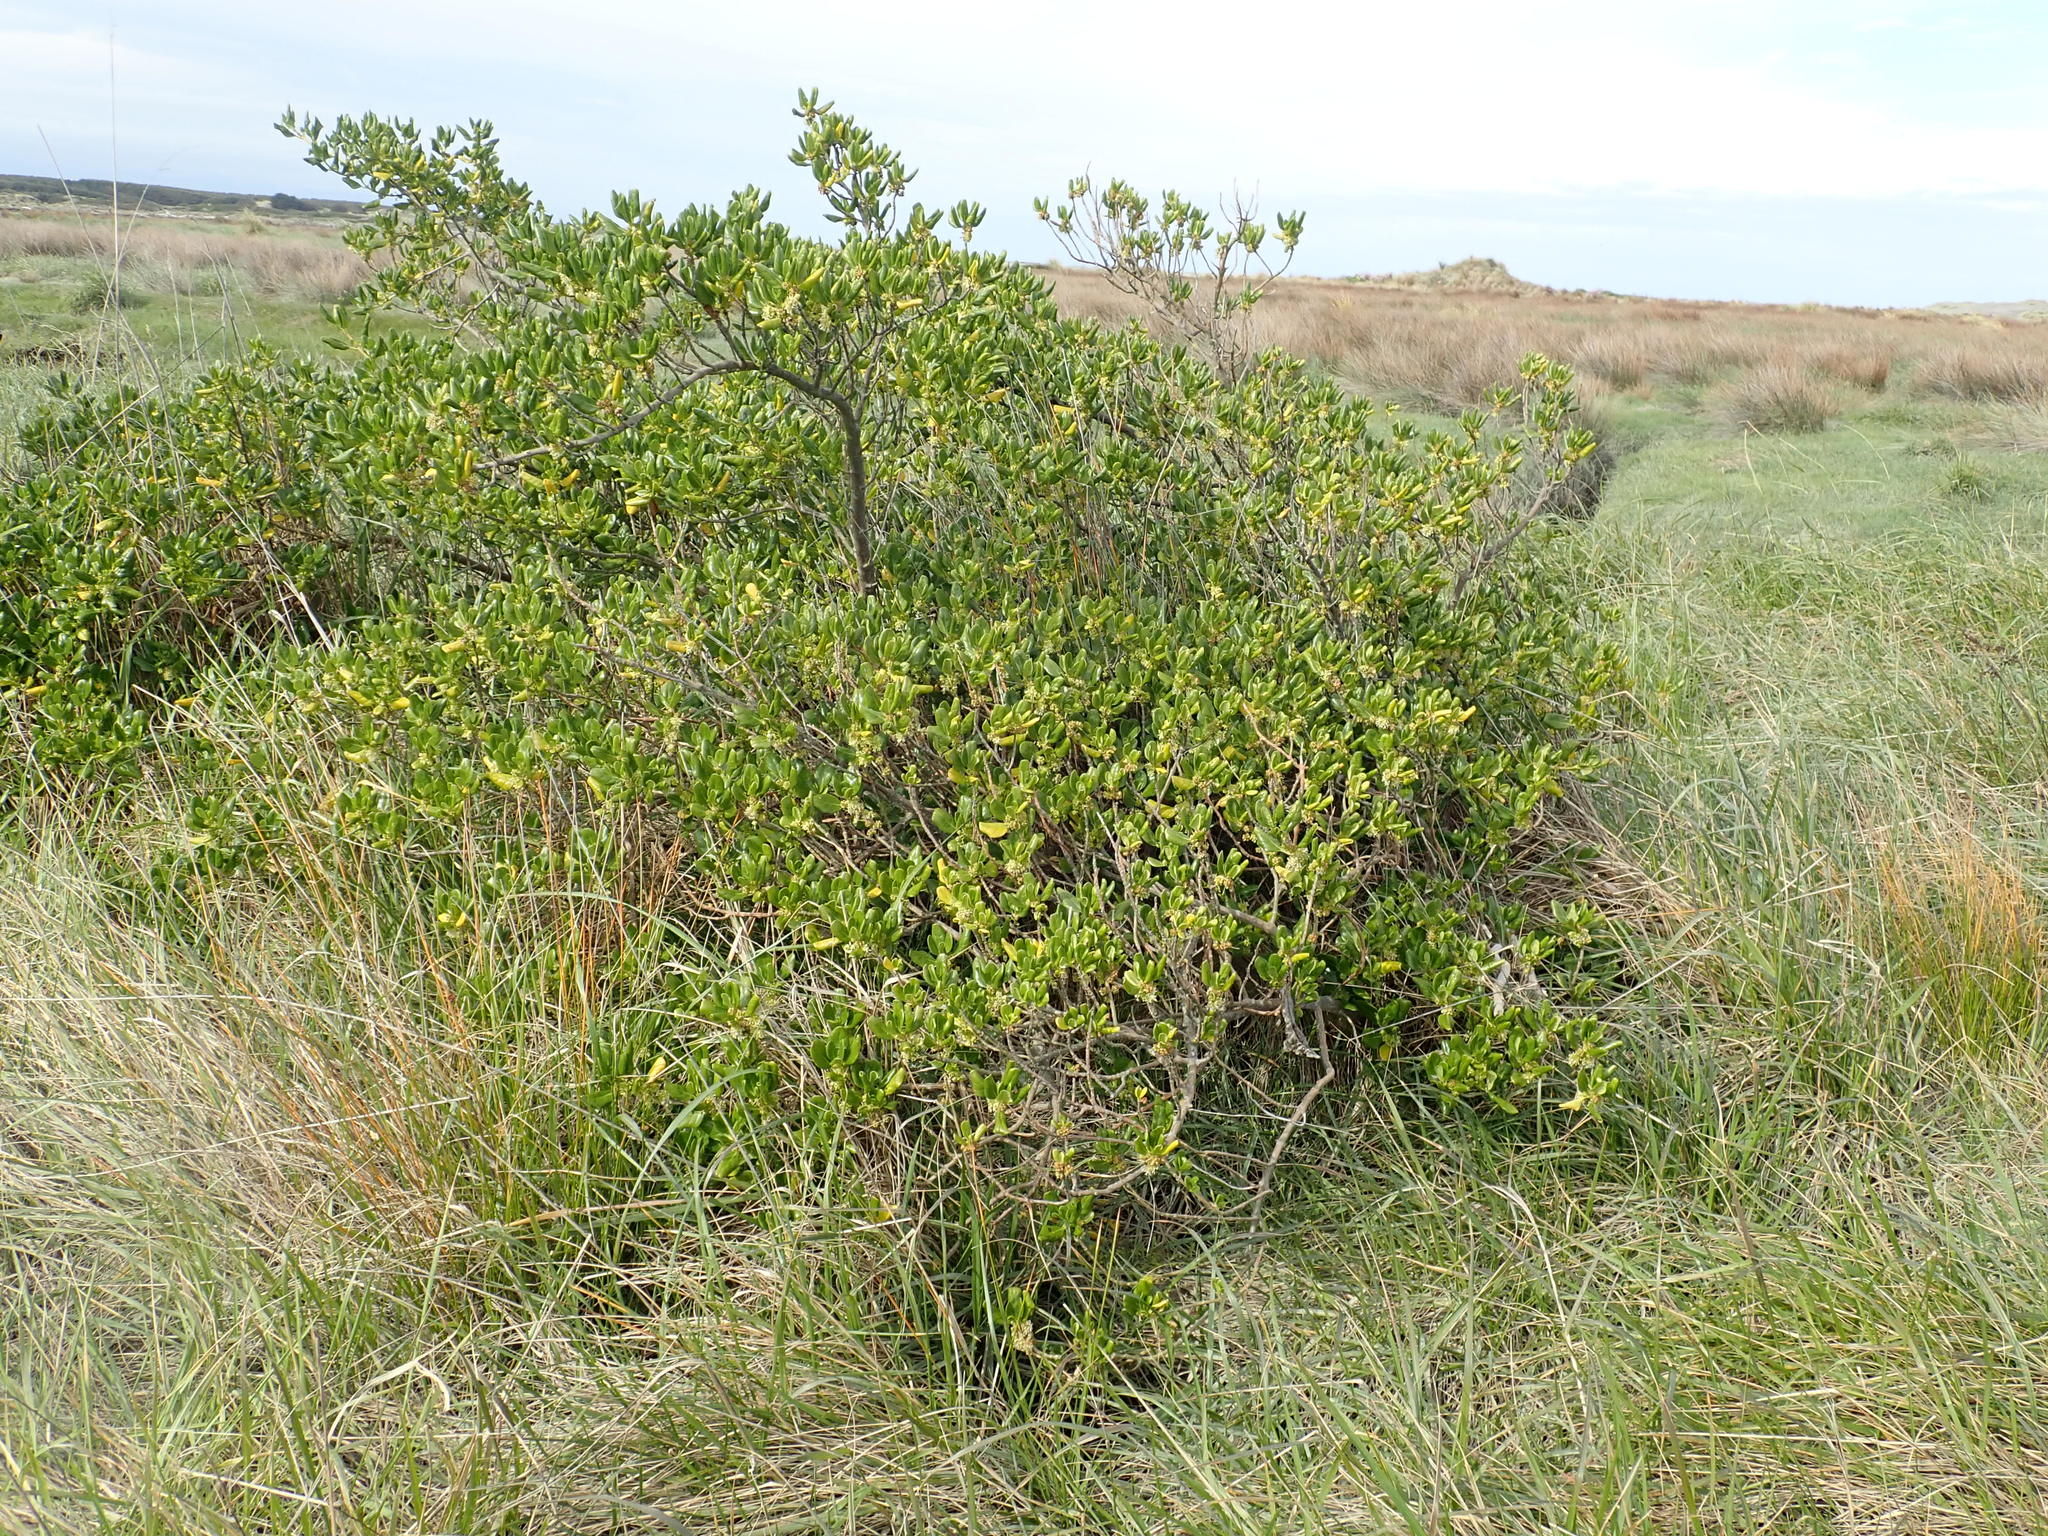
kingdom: Plantae
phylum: Tracheophyta
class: Magnoliopsida
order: Gentianales
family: Rubiaceae
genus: Coprosma
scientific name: Coprosma repens
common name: Tree bedstraw
